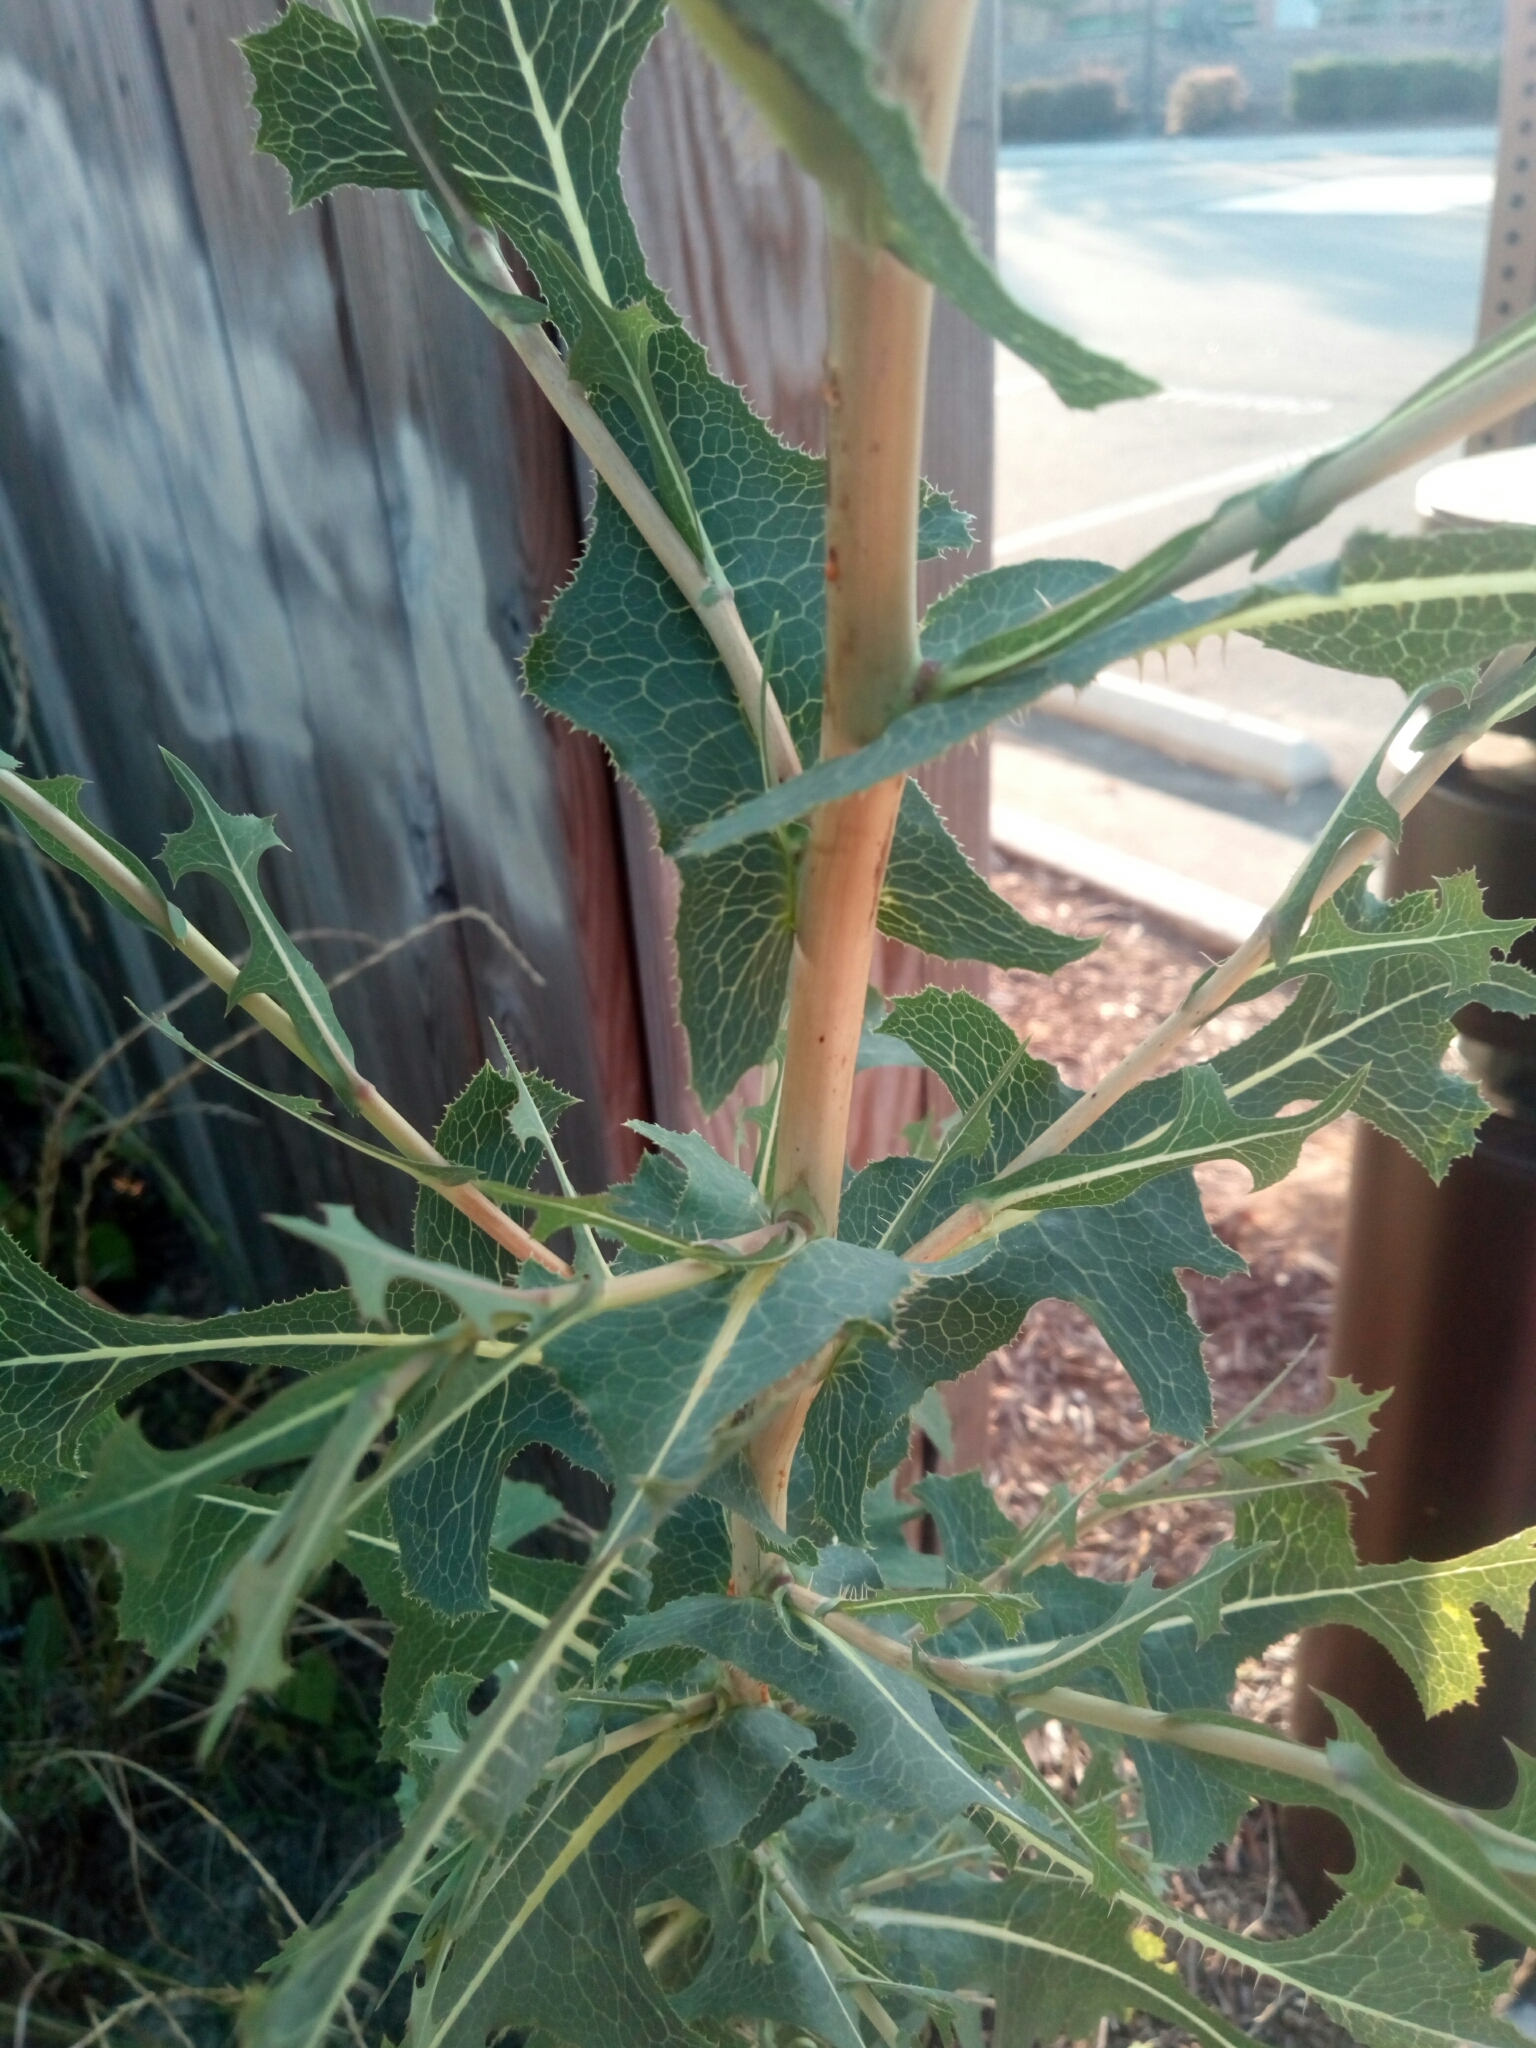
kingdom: Plantae
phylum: Tracheophyta
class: Magnoliopsida
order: Asterales
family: Asteraceae
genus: Lactuca
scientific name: Lactuca serriola
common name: Prickly lettuce
